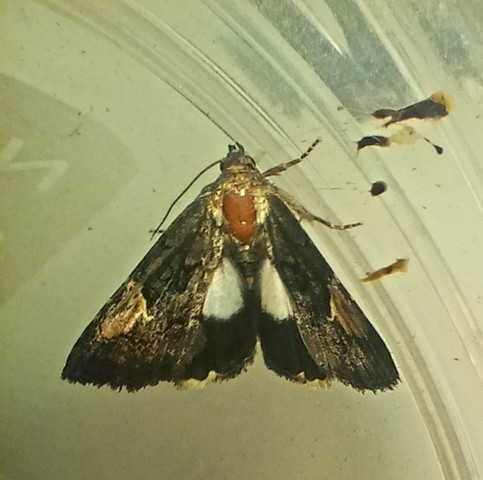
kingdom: Animalia
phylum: Arthropoda
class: Insecta
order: Lepidoptera
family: Noctuidae
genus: Aedia
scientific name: Aedia funesta
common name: The druid
